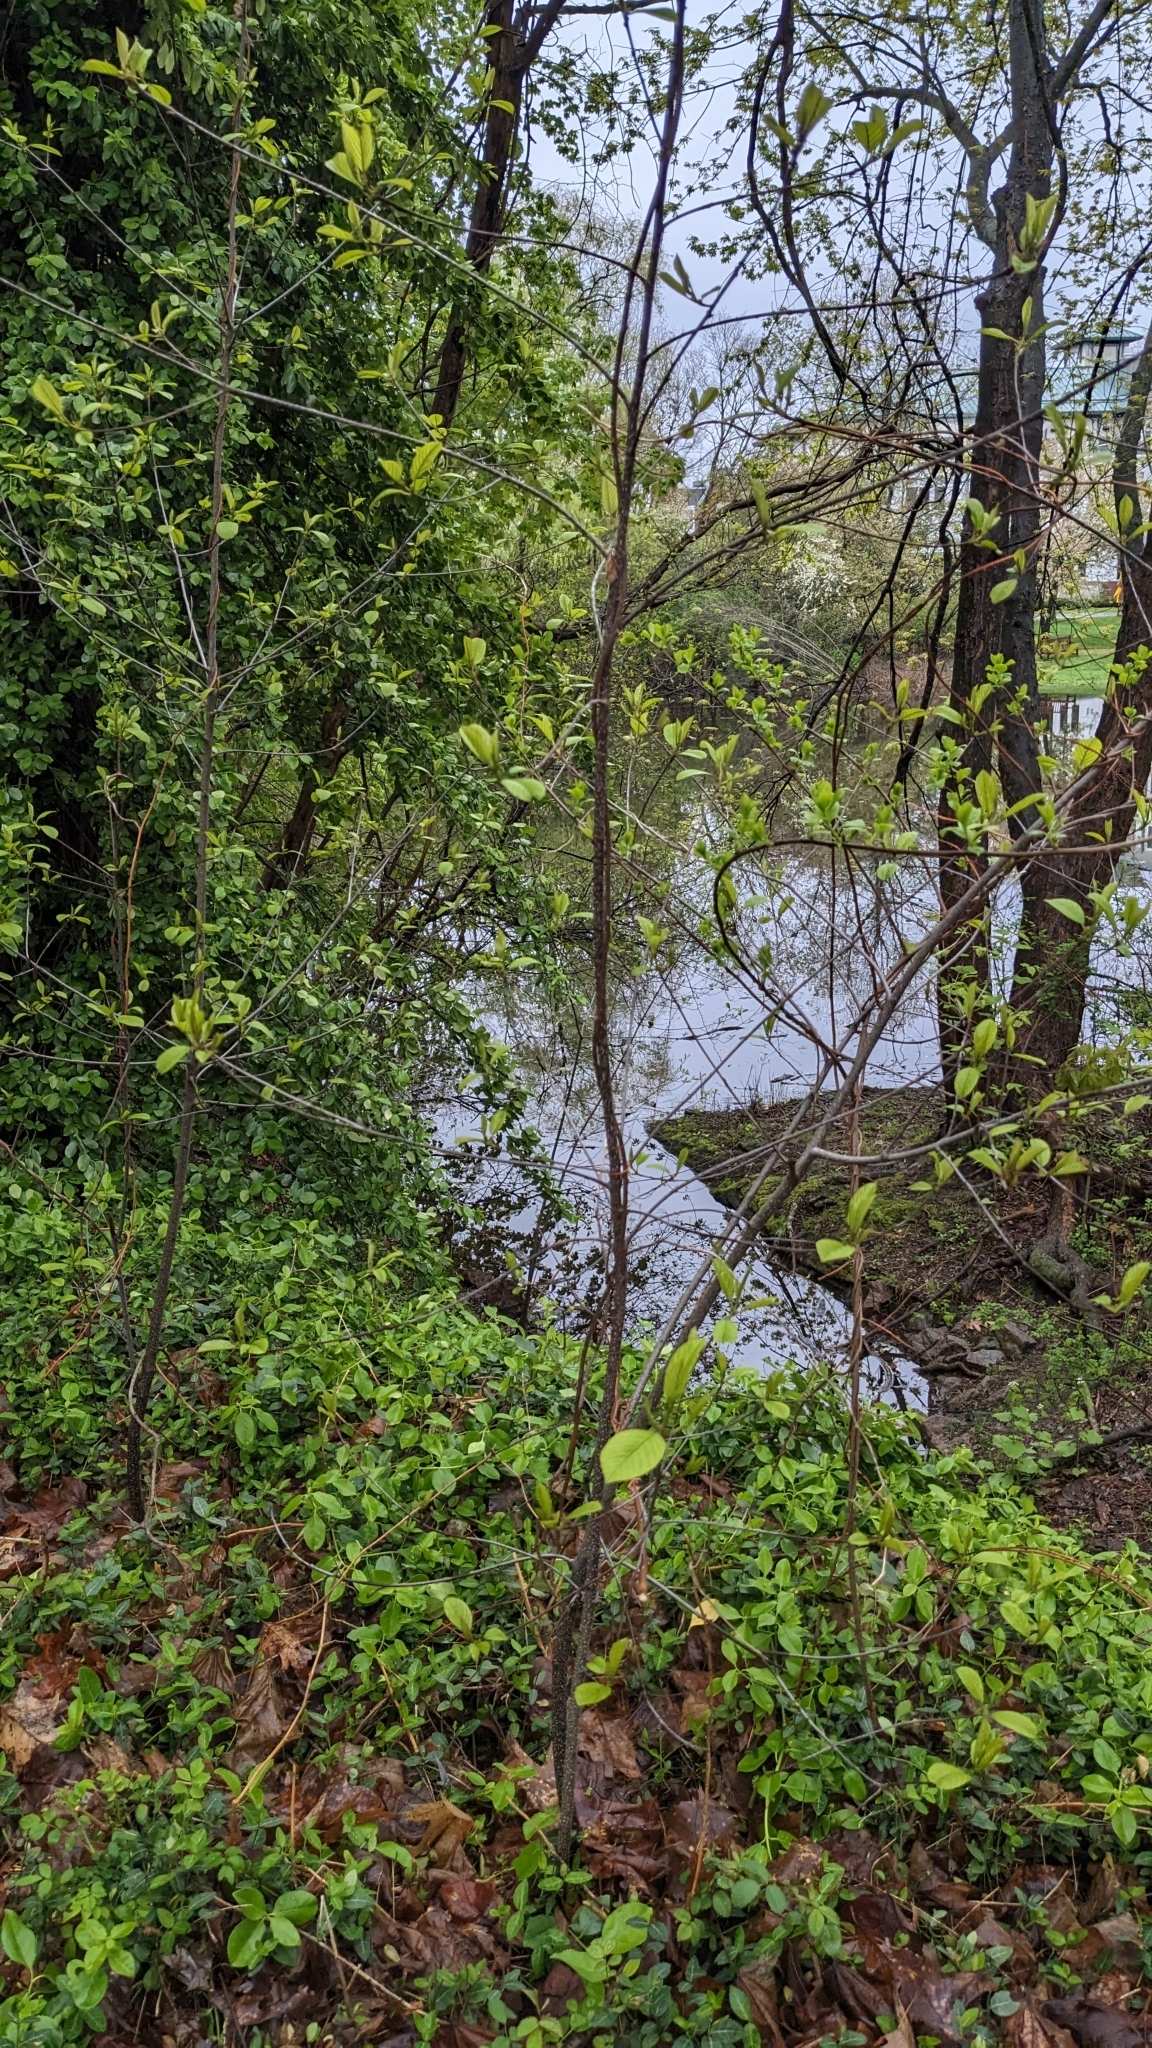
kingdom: Plantae
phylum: Tracheophyta
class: Magnoliopsida
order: Rosales
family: Rhamnaceae
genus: Frangula
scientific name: Frangula alnus
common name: Alder buckthorn
